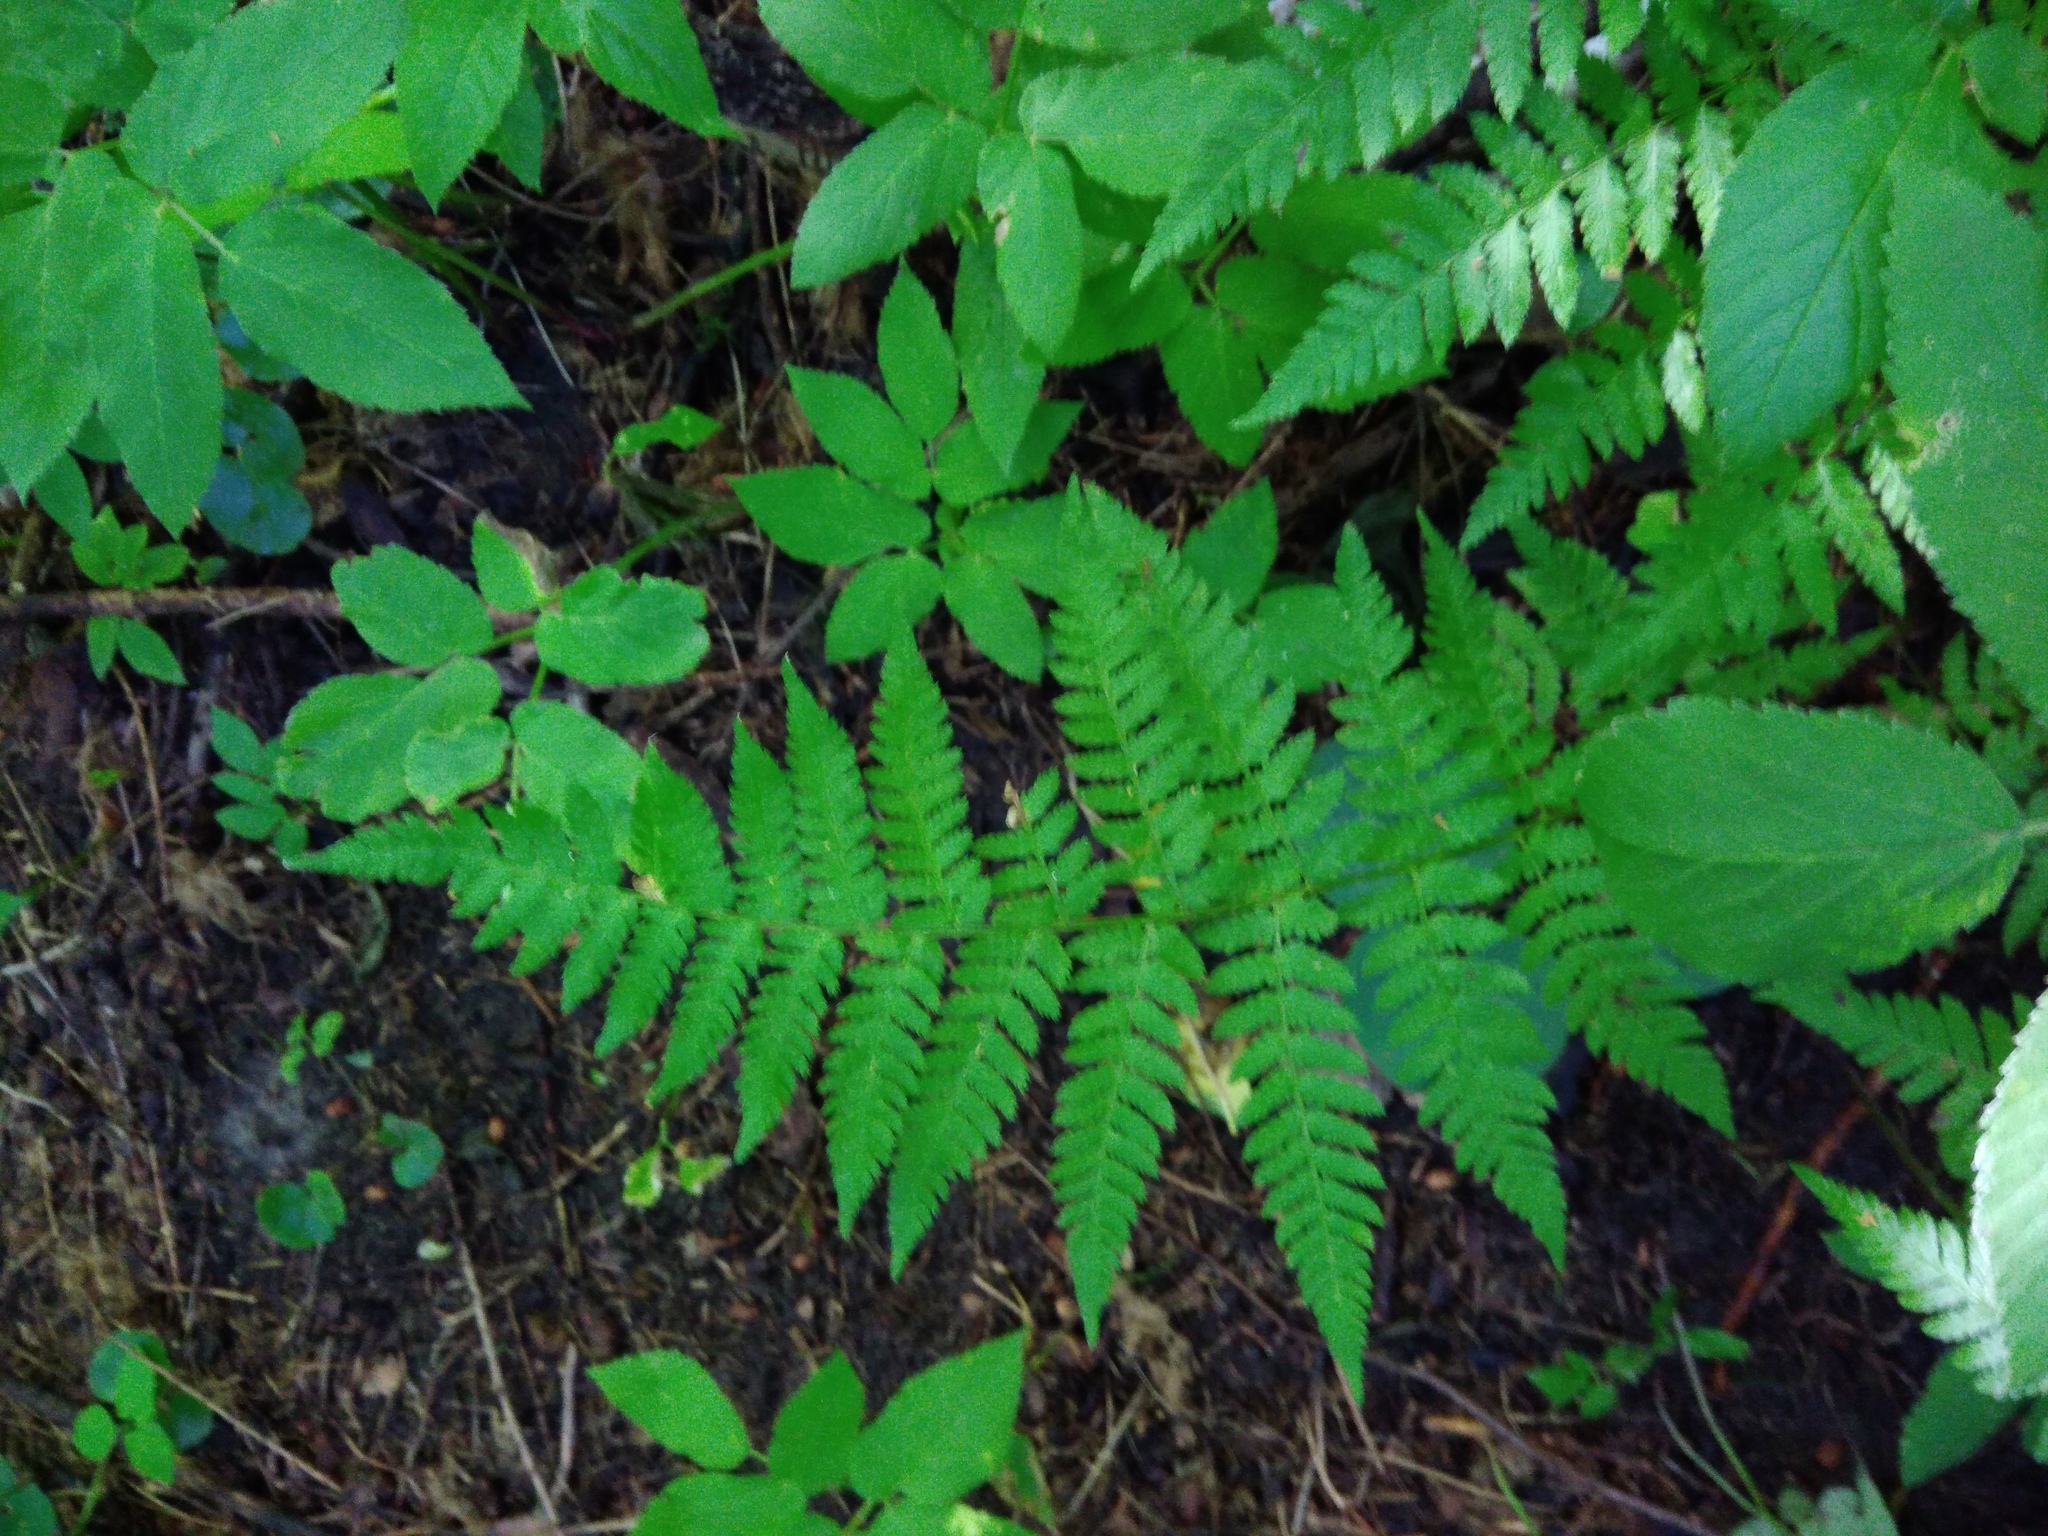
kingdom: Plantae
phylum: Tracheophyta
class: Polypodiopsida
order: Polypodiales
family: Dryopteridaceae
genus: Dryopteris
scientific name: Dryopteris carthusiana
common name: Narrow buckler-fern
